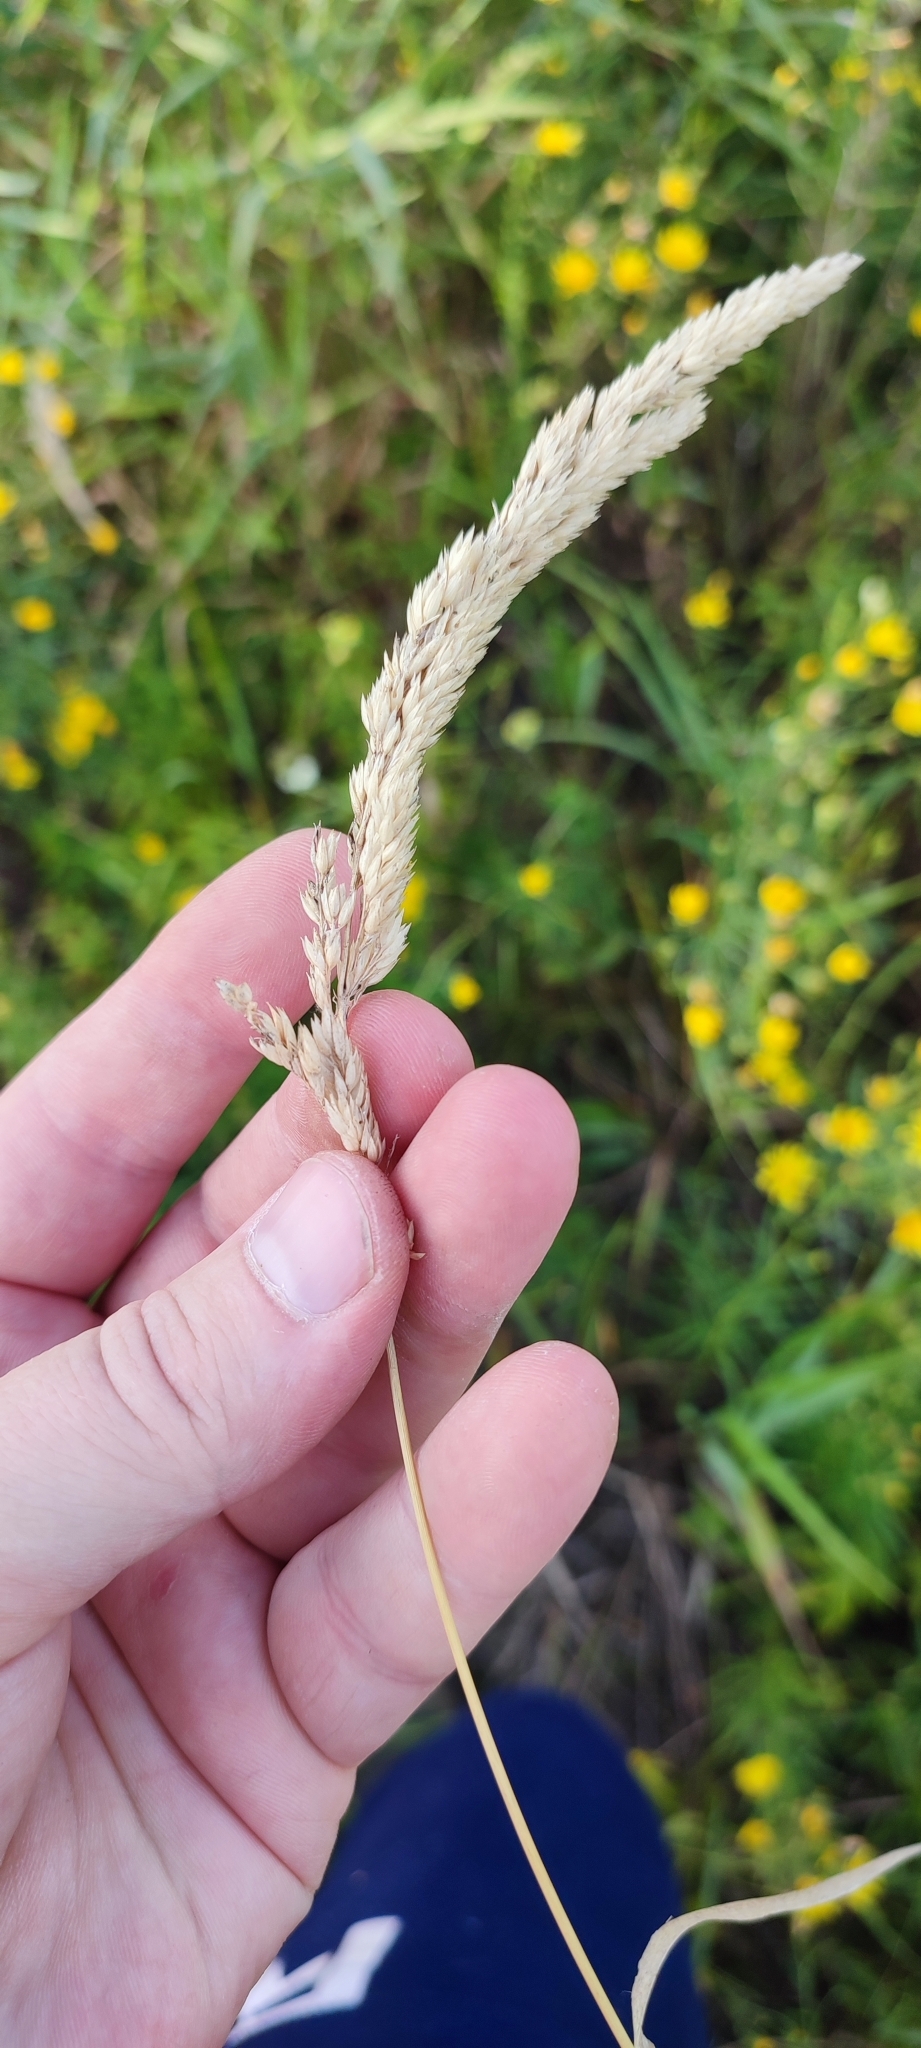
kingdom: Plantae
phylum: Tracheophyta
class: Liliopsida
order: Poales
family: Poaceae
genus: Phalaris
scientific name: Phalaris arundinacea
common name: Reed canary-grass
